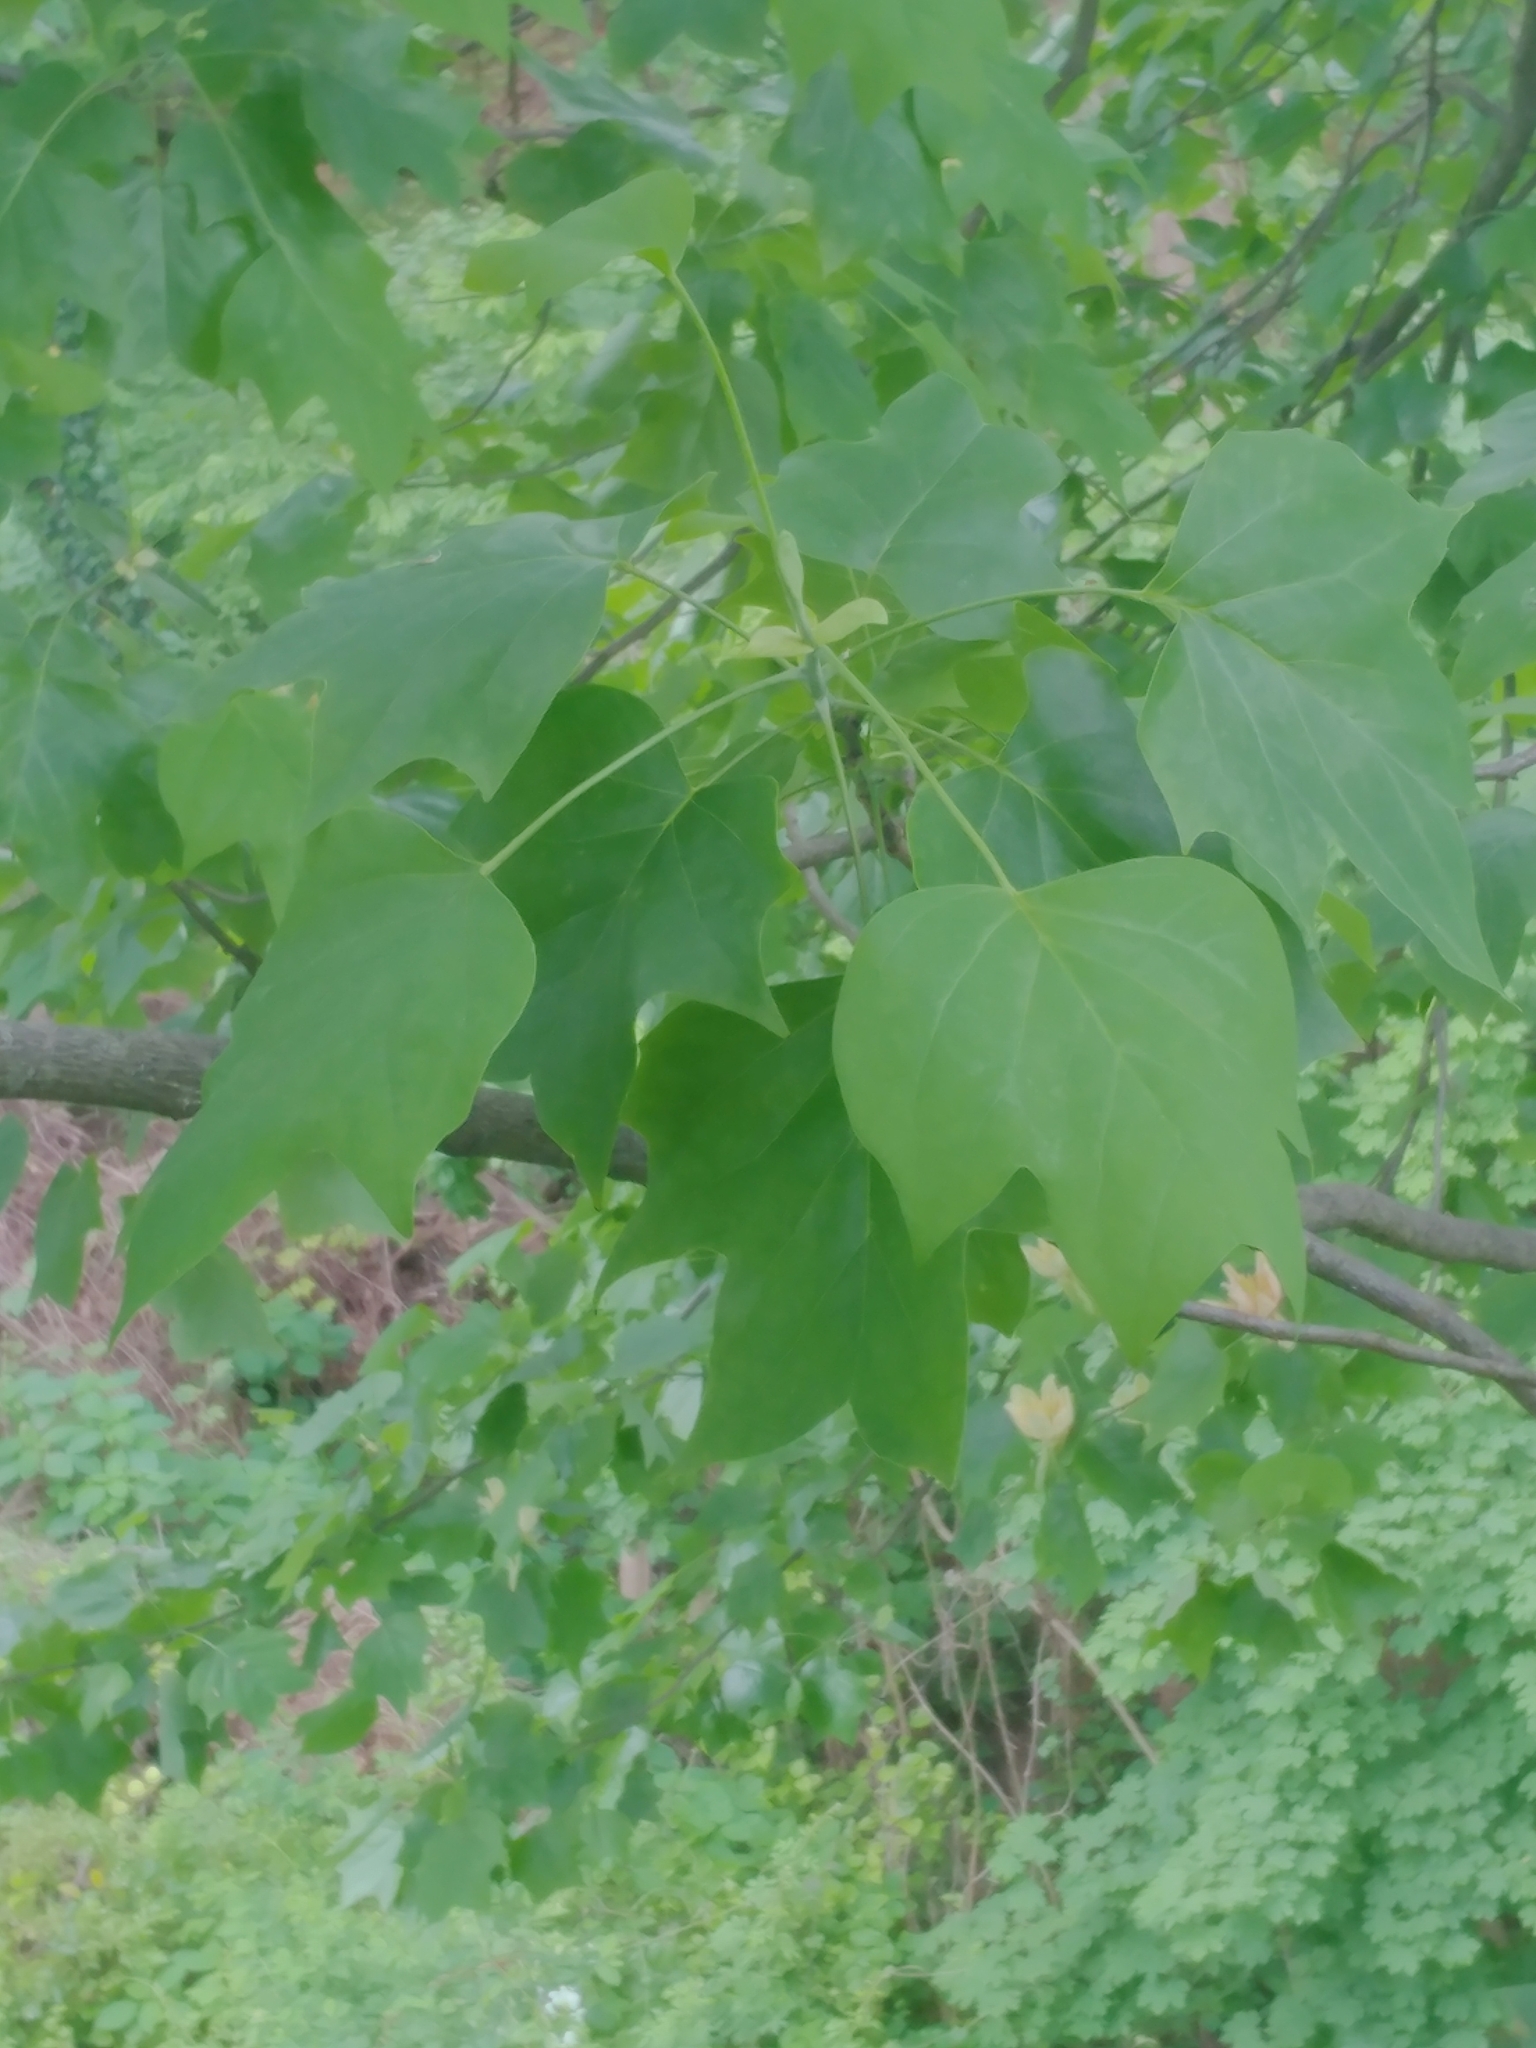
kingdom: Plantae
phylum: Tracheophyta
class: Magnoliopsida
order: Magnoliales
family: Magnoliaceae
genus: Liriodendron
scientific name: Liriodendron tulipifera
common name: Tulip tree
